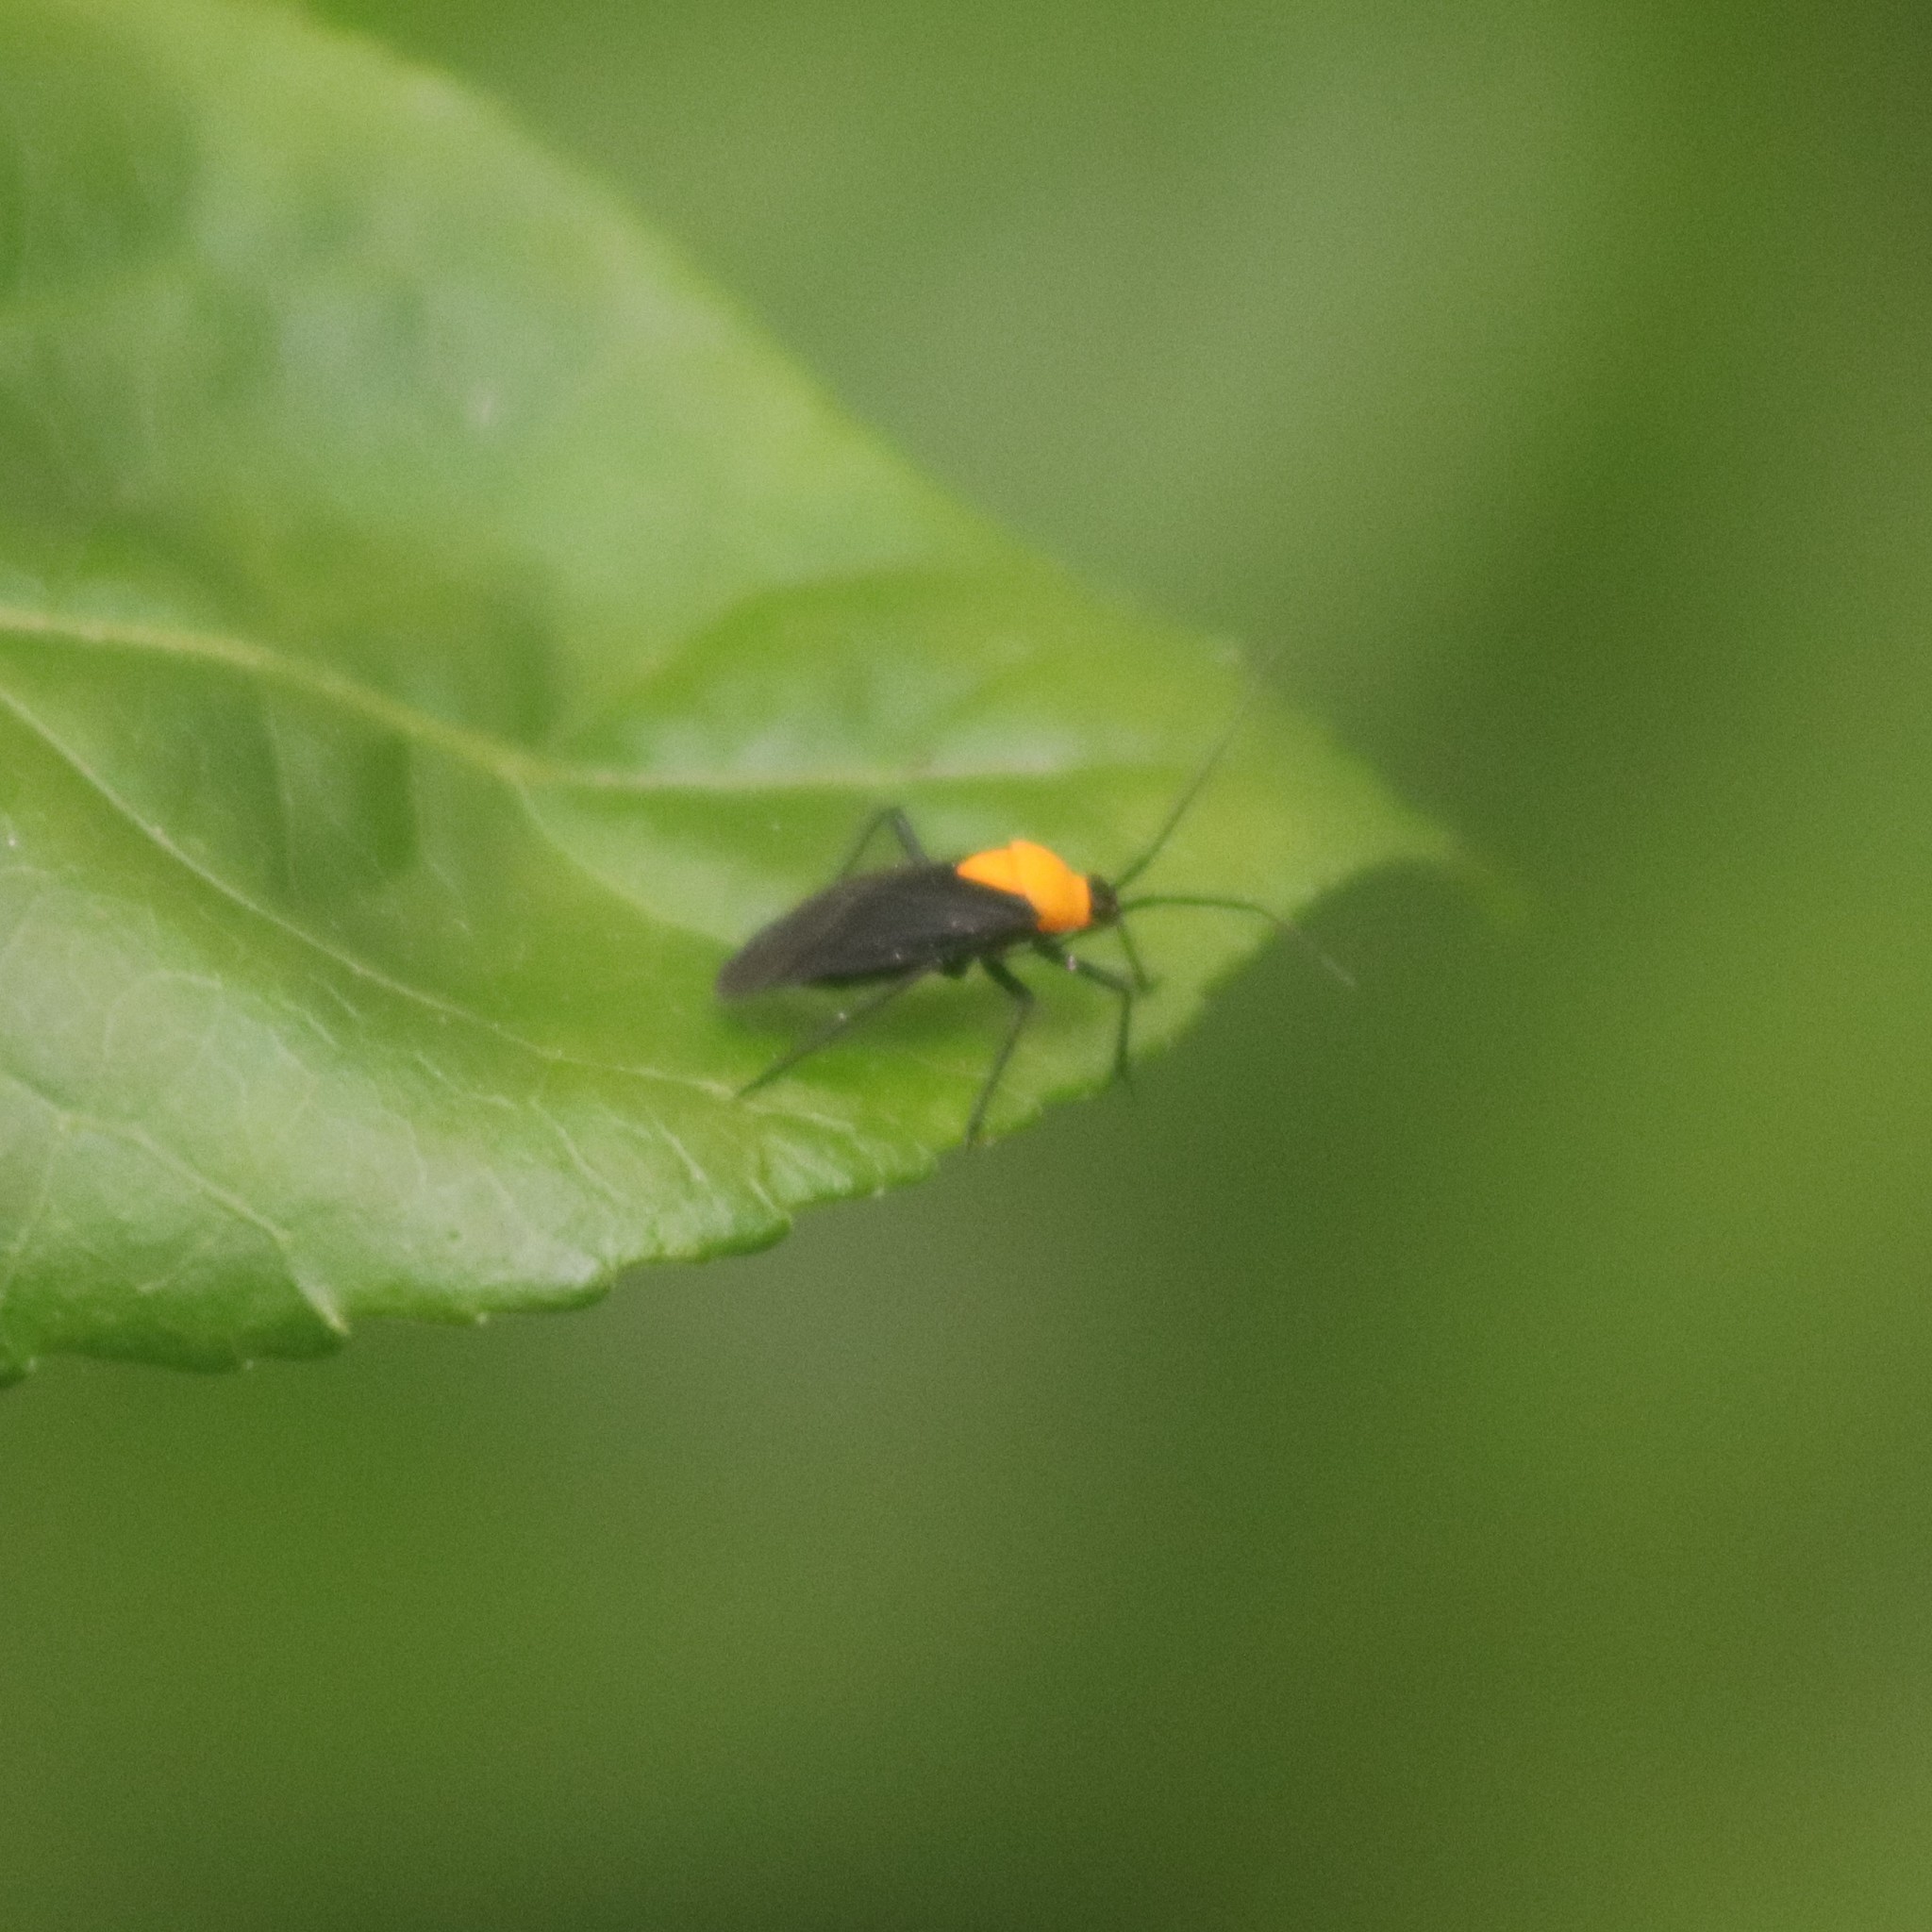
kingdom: Animalia
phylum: Arthropoda
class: Insecta
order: Hemiptera
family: Miridae
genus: Prepops
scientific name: Prepops insitivus
